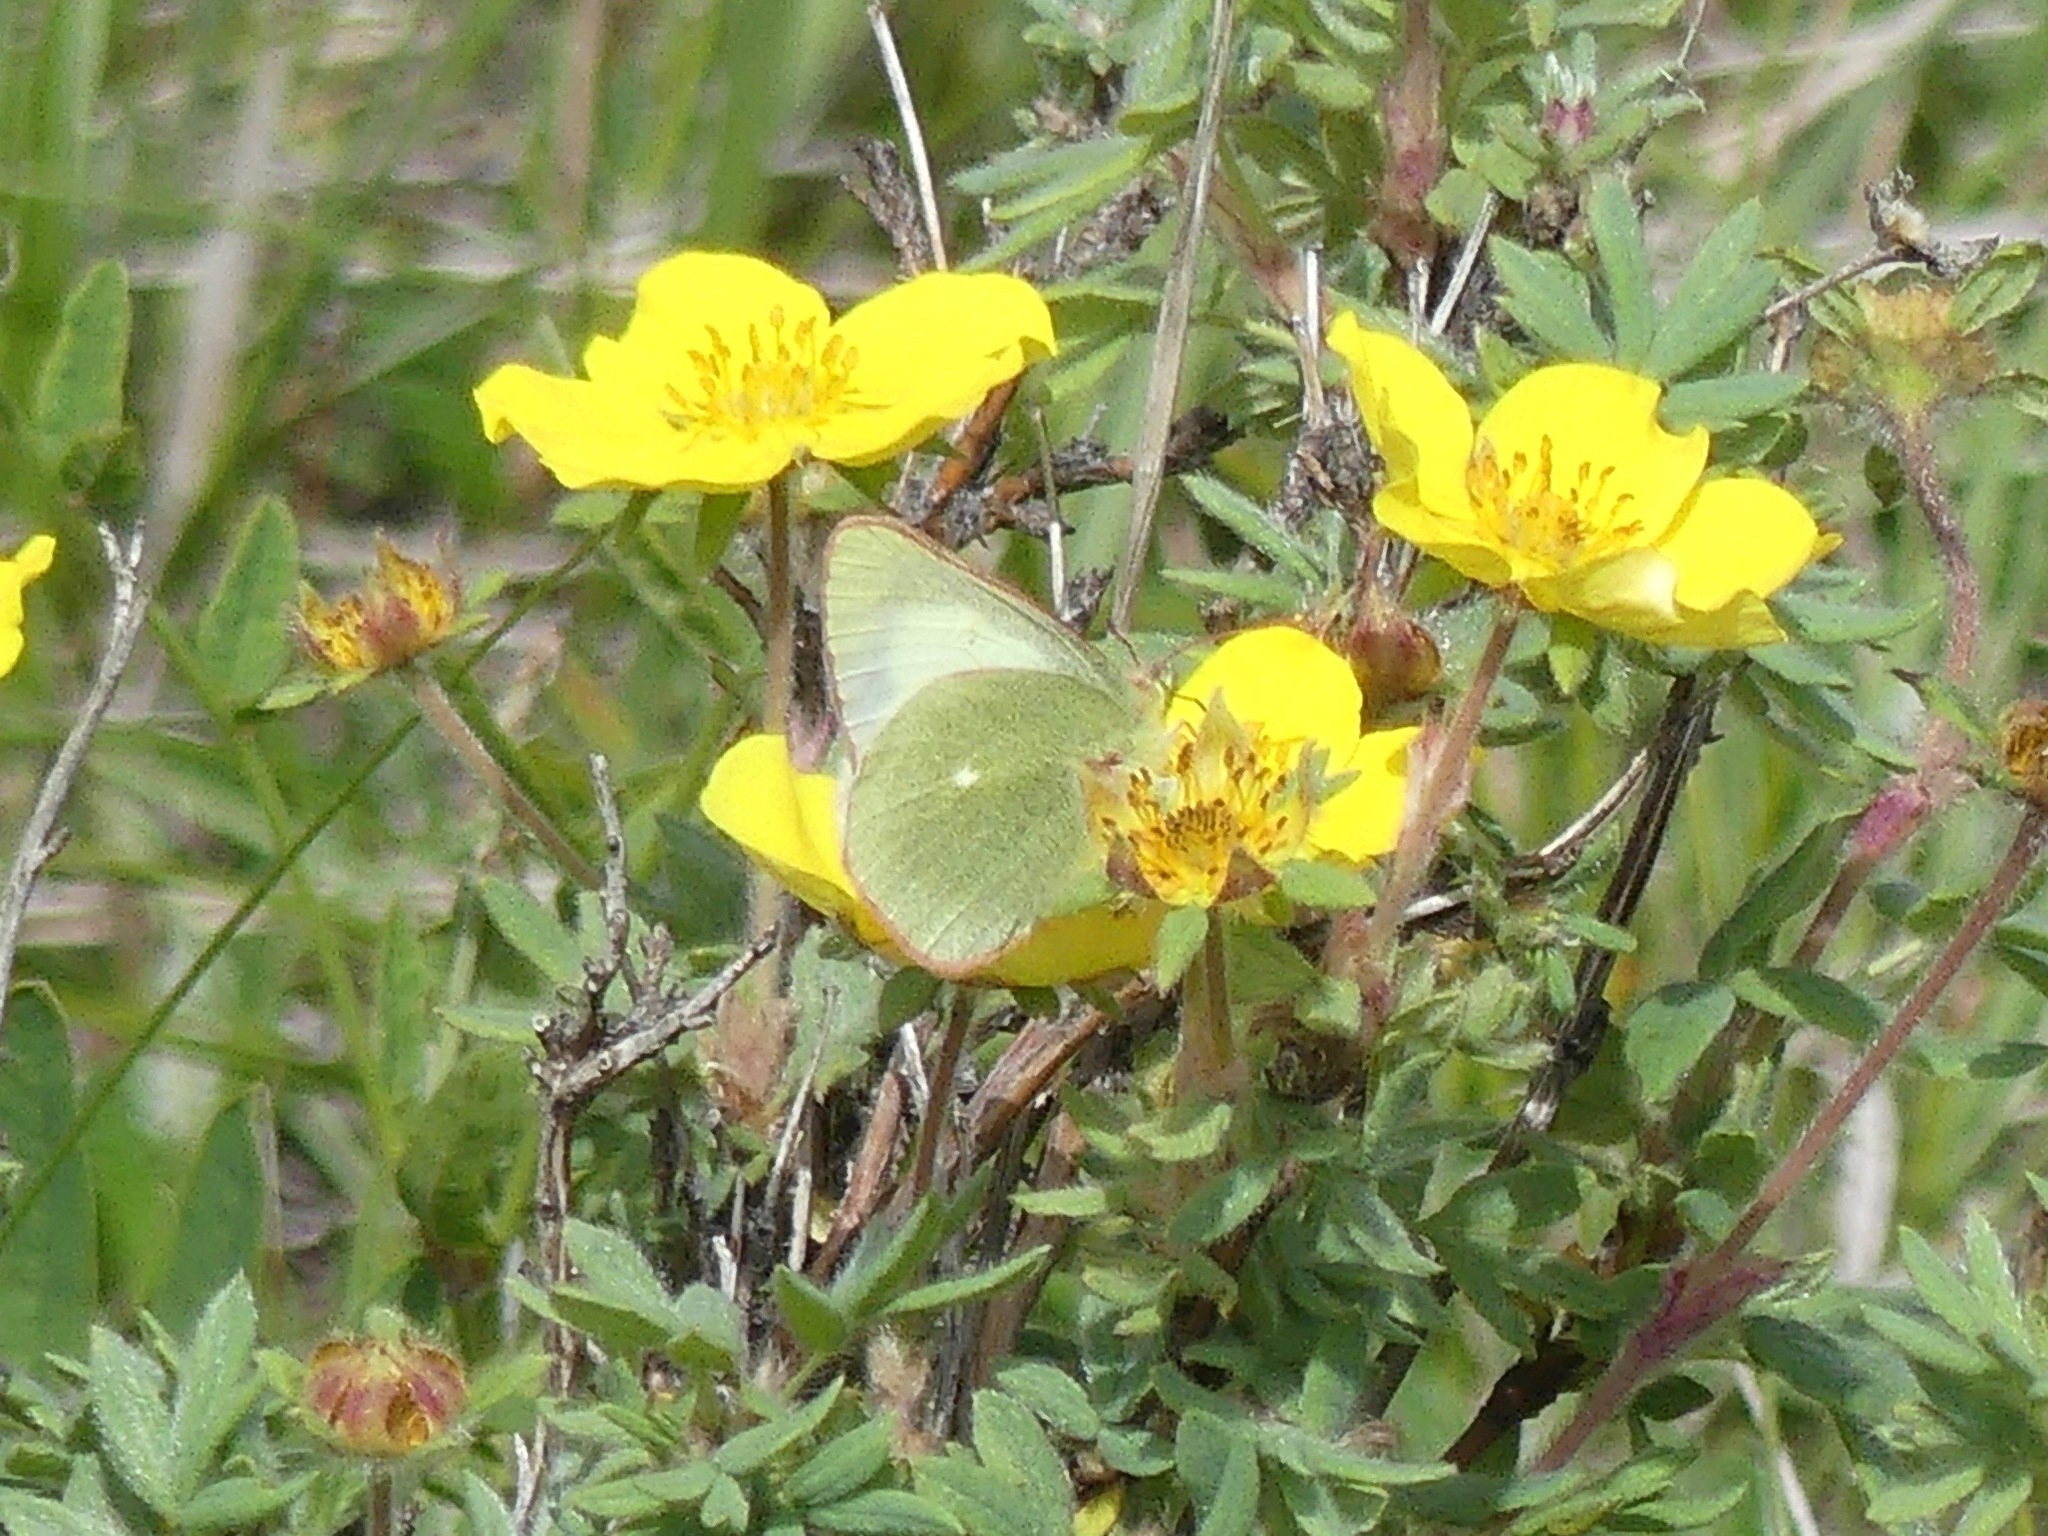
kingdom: Animalia
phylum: Arthropoda
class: Insecta
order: Lepidoptera
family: Pieridae
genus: Colias
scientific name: Colias palaeno
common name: Moorland clouded yellow
